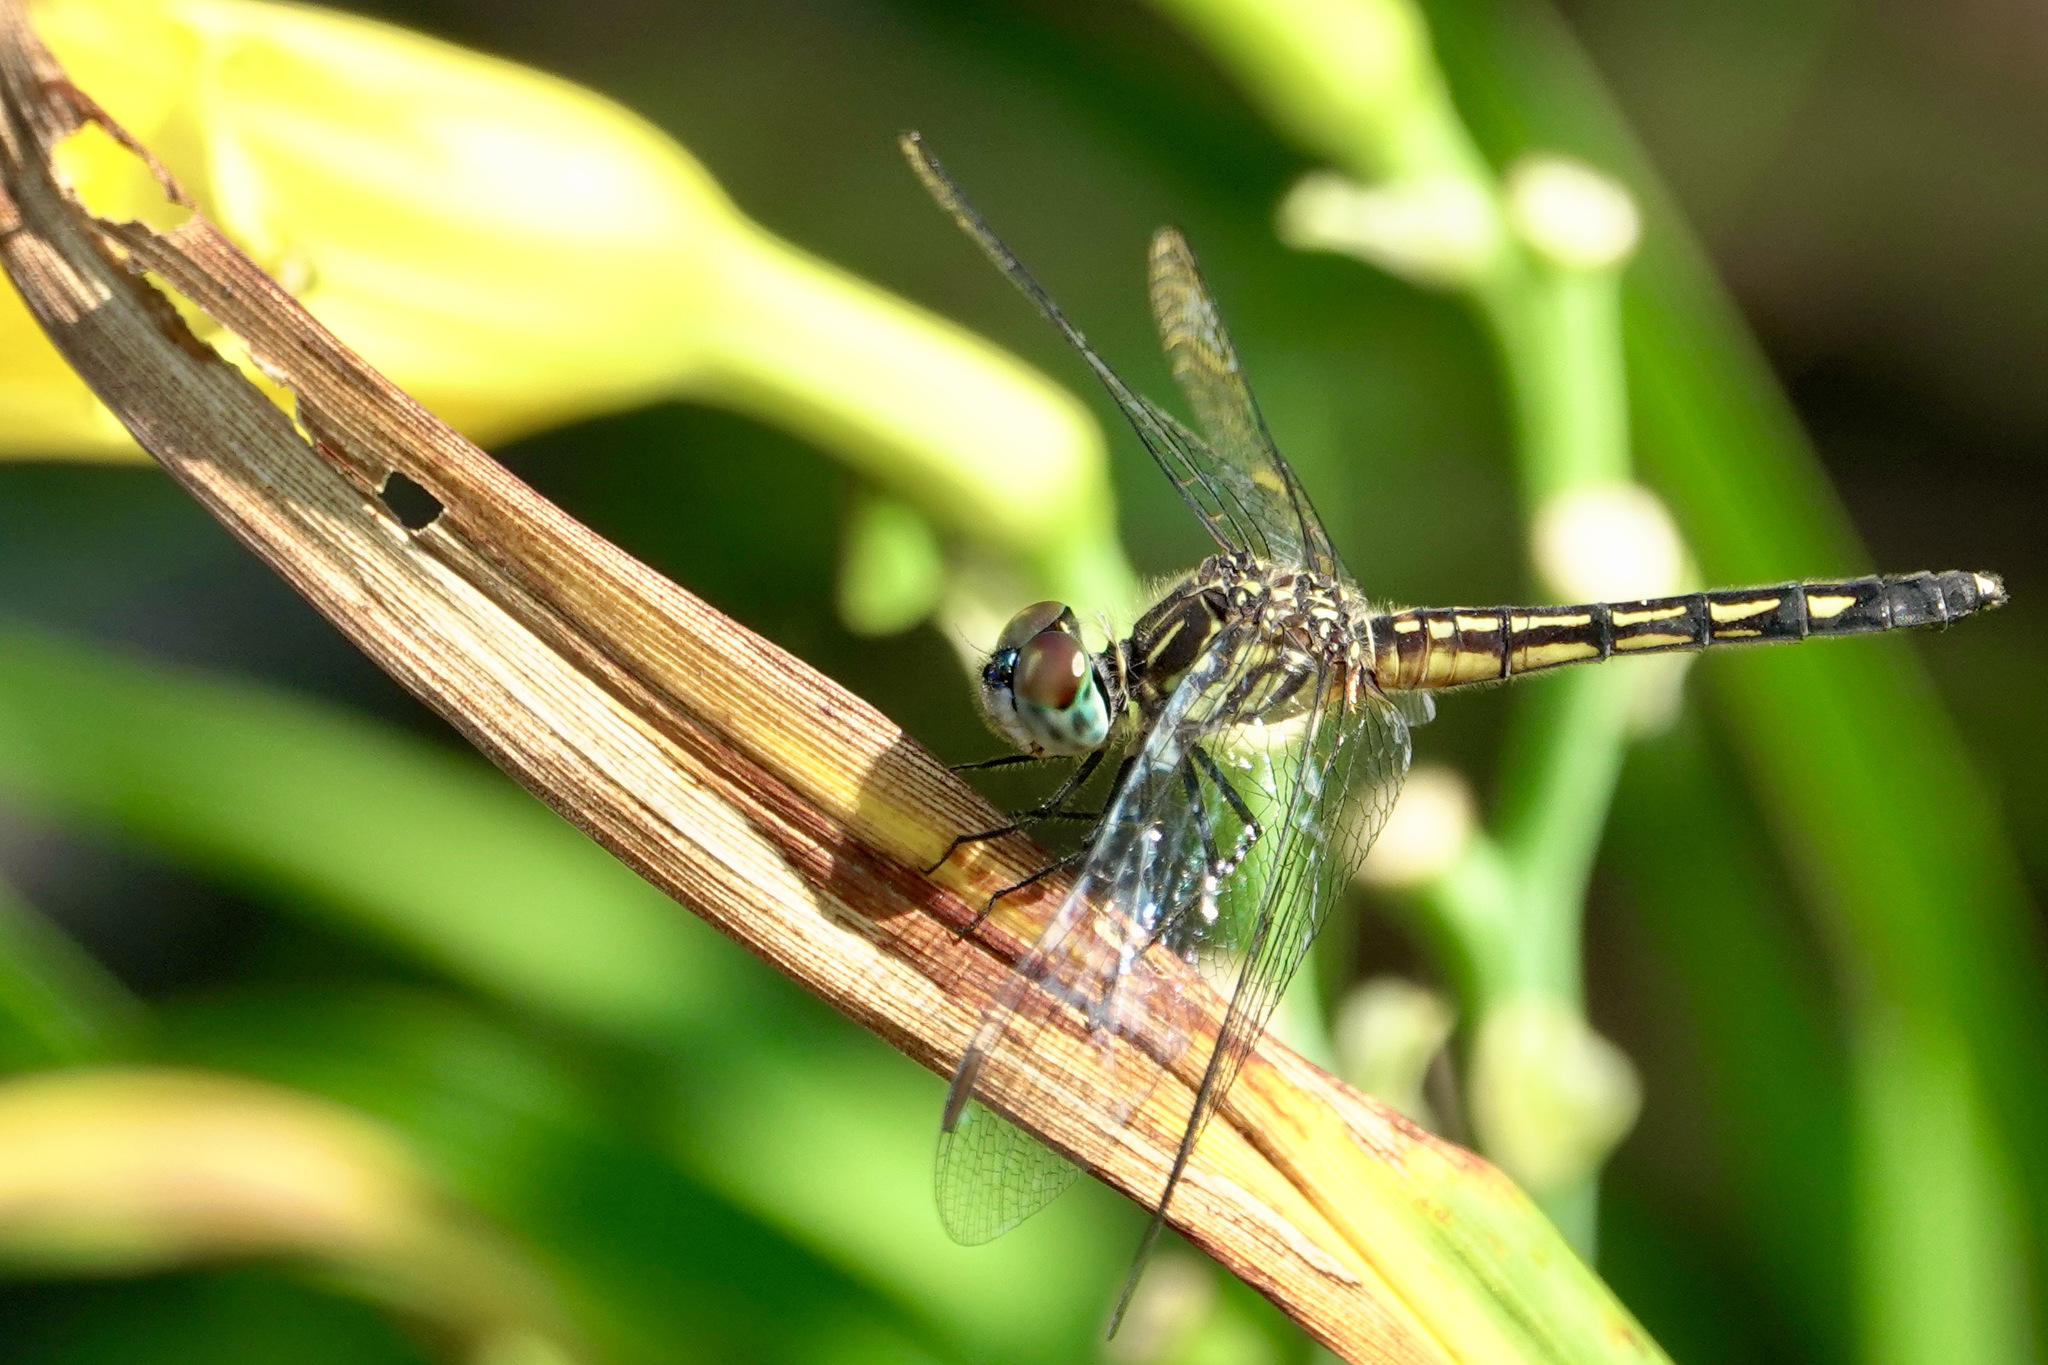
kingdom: Animalia
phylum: Arthropoda
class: Insecta
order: Odonata
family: Libellulidae
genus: Pachydiplax
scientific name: Pachydiplax longipennis
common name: Blue dasher
